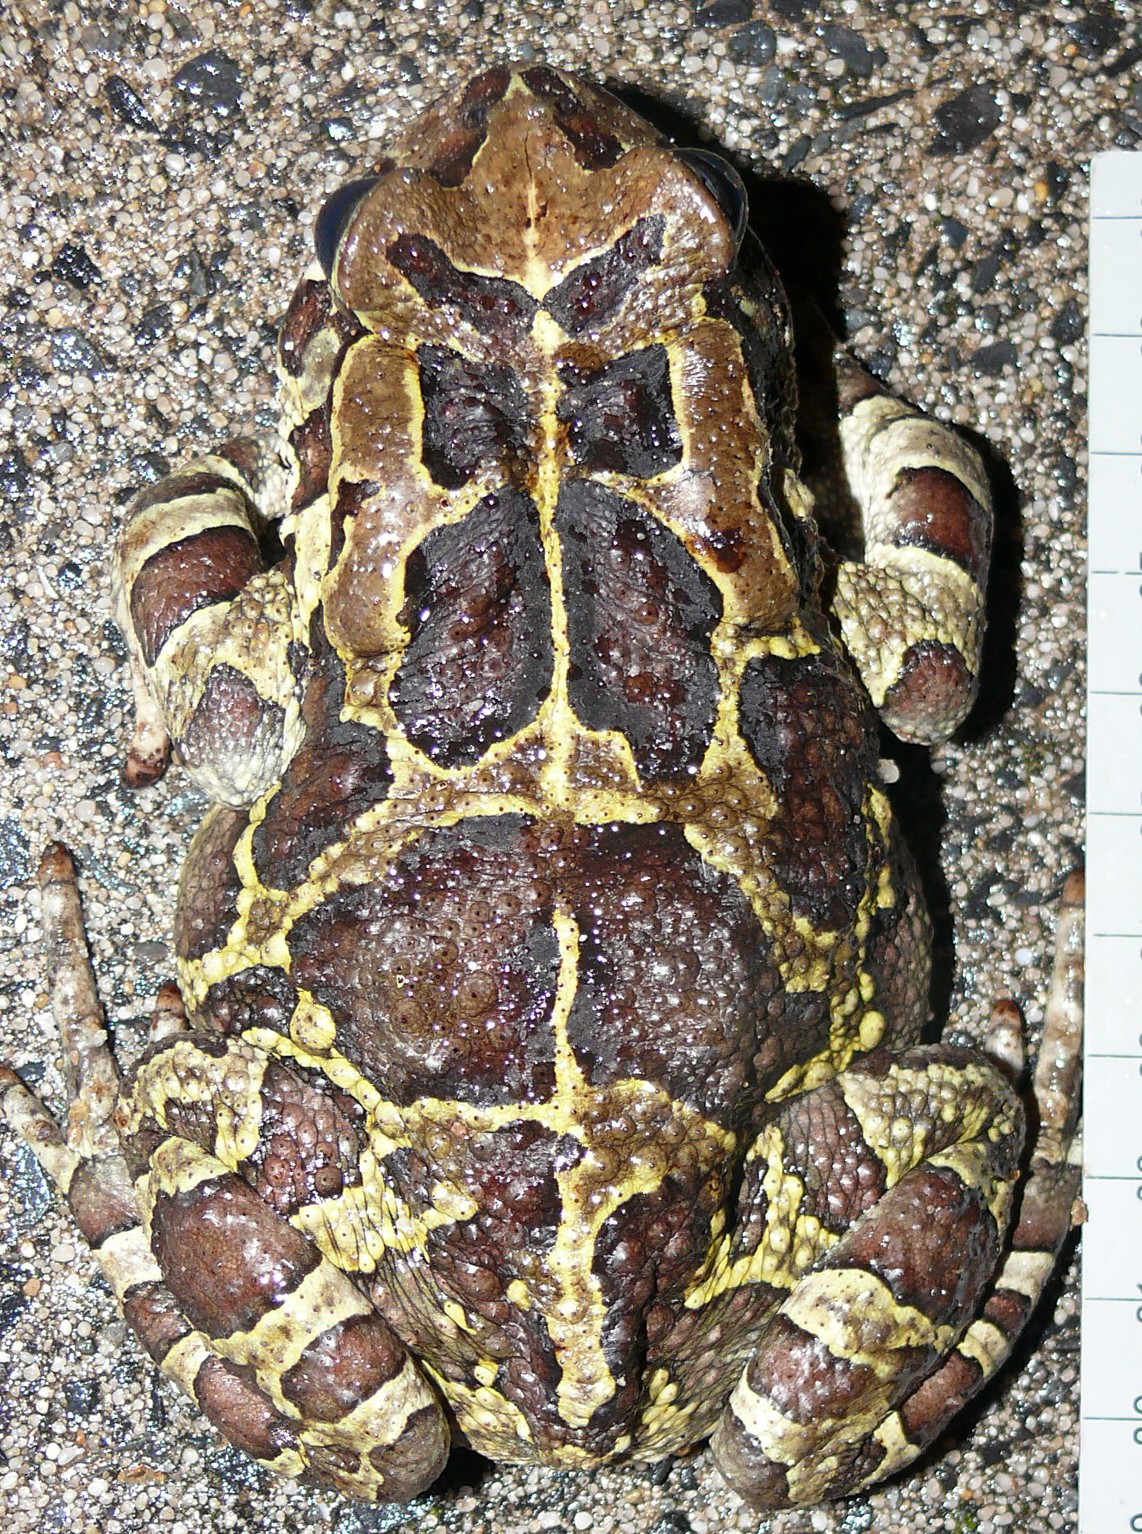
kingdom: Animalia
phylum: Chordata
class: Amphibia
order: Anura
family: Bufonidae
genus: Sclerophrys
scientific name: Sclerophrys pantherina
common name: Panther toad
